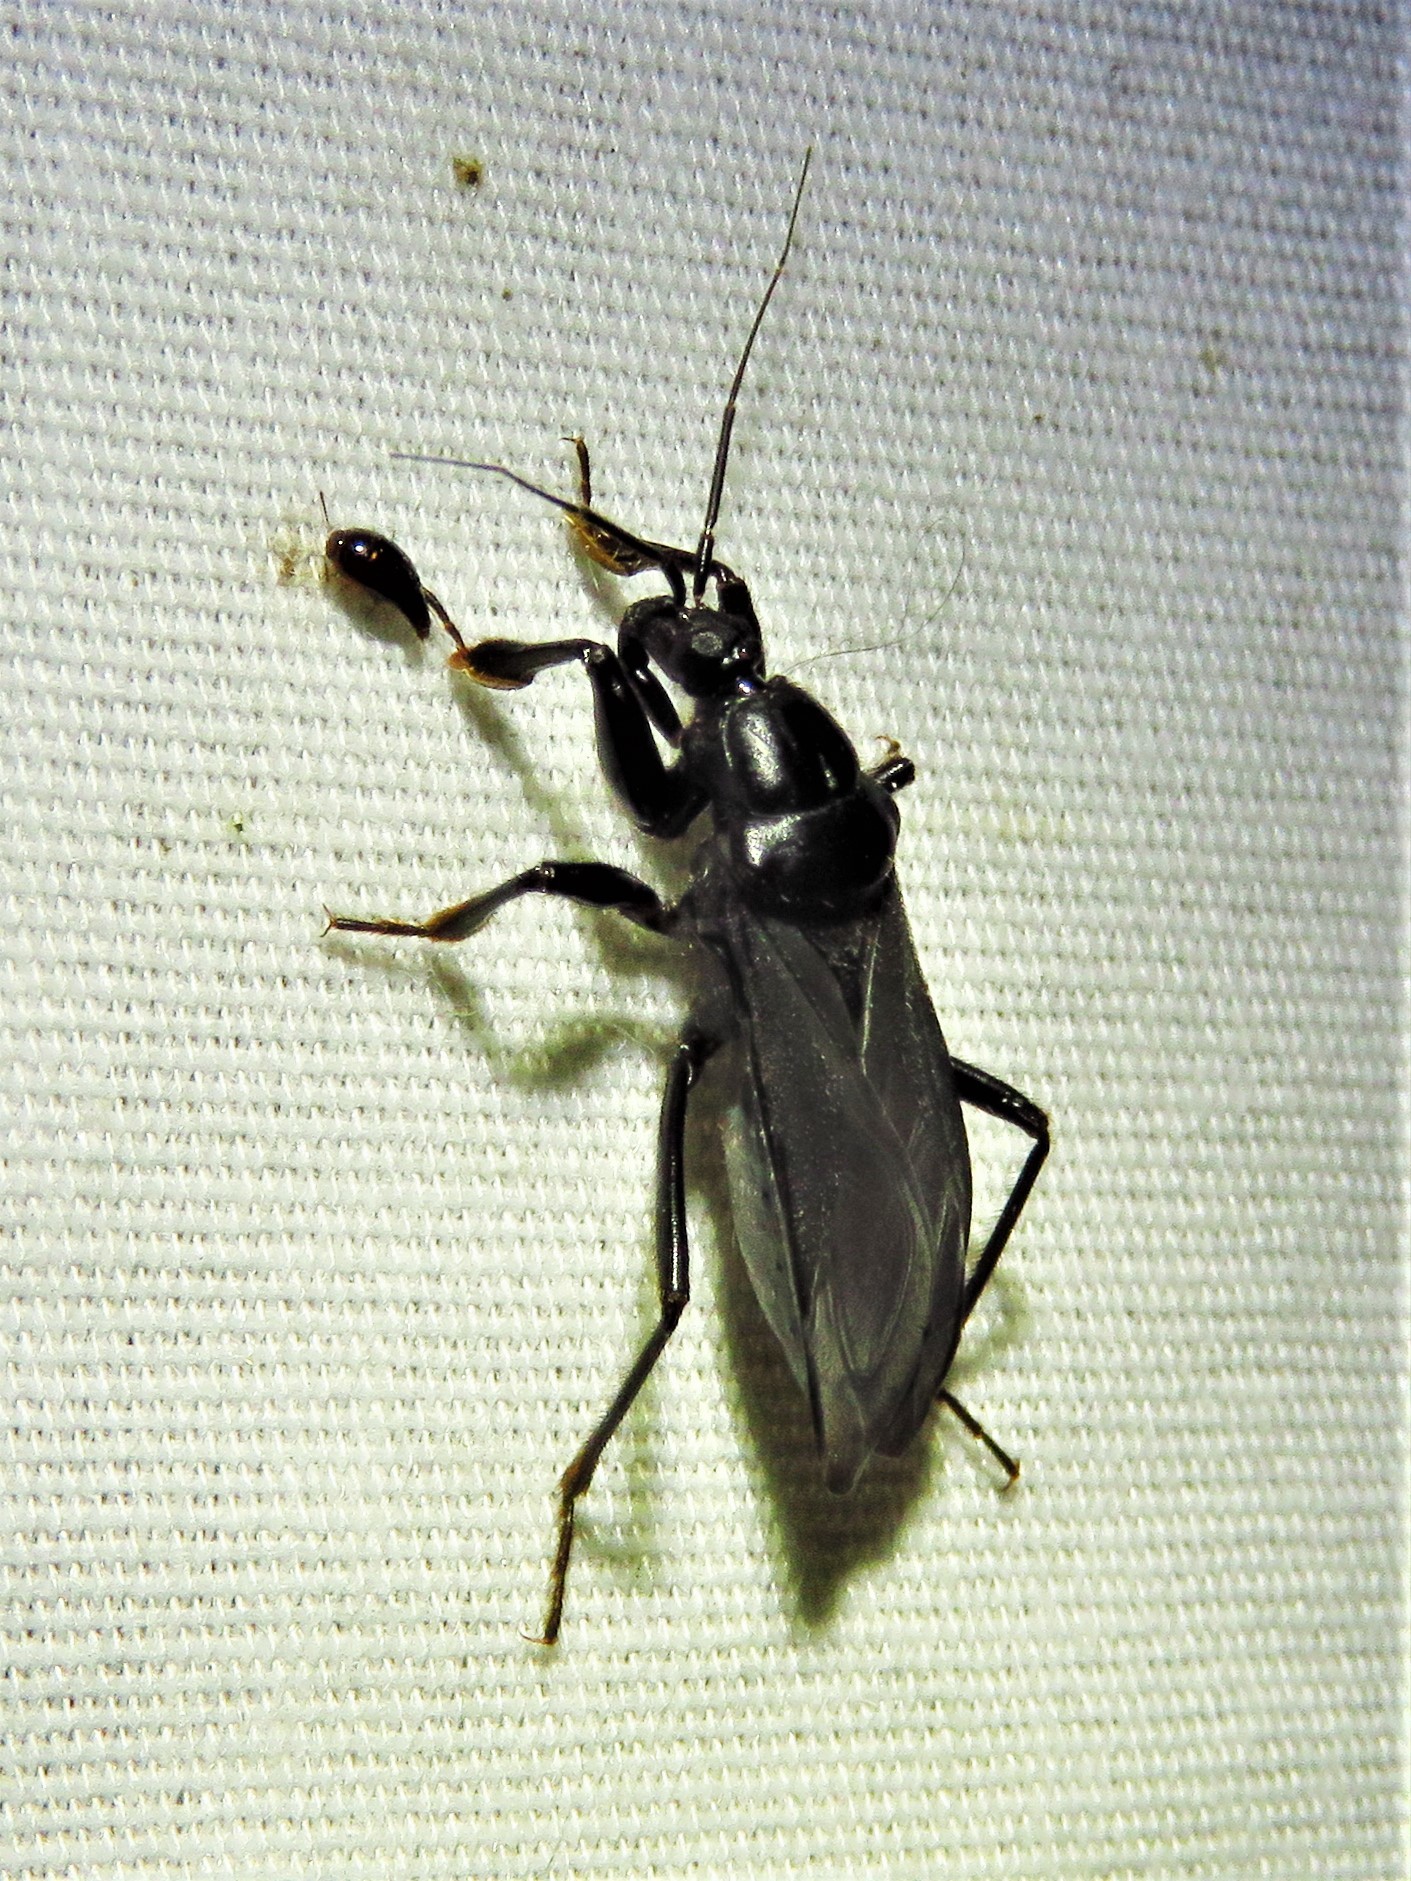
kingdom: Animalia
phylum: Arthropoda
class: Insecta
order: Hemiptera
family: Reduviidae
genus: Melanolestes
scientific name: Melanolestes picipes
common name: Assassin bug
